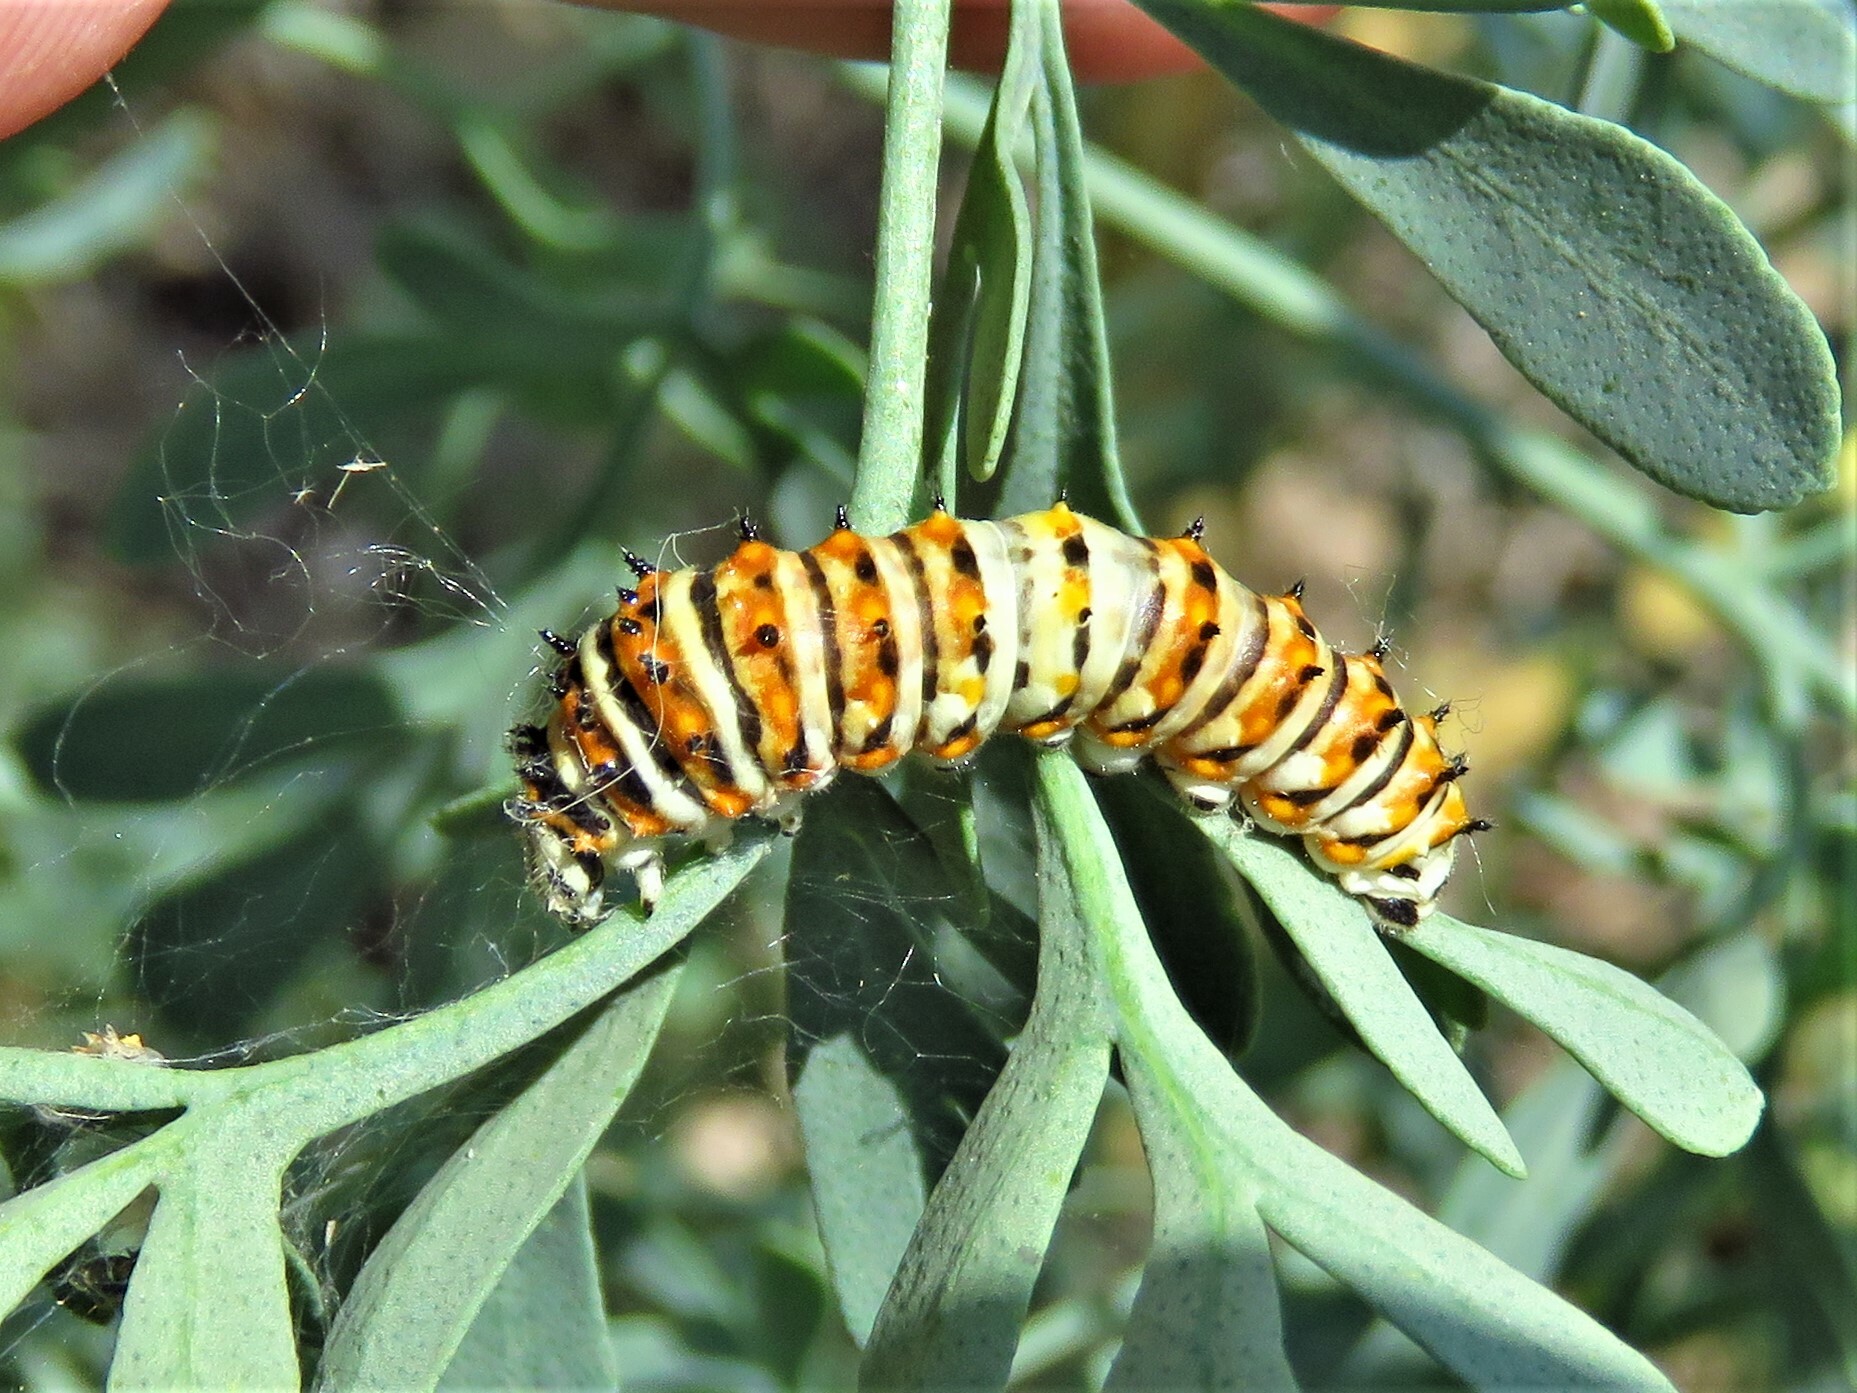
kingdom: Animalia
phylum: Arthropoda
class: Insecta
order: Lepidoptera
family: Papilionidae
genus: Papilio
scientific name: Papilio polyxenes
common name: Black swallowtail
